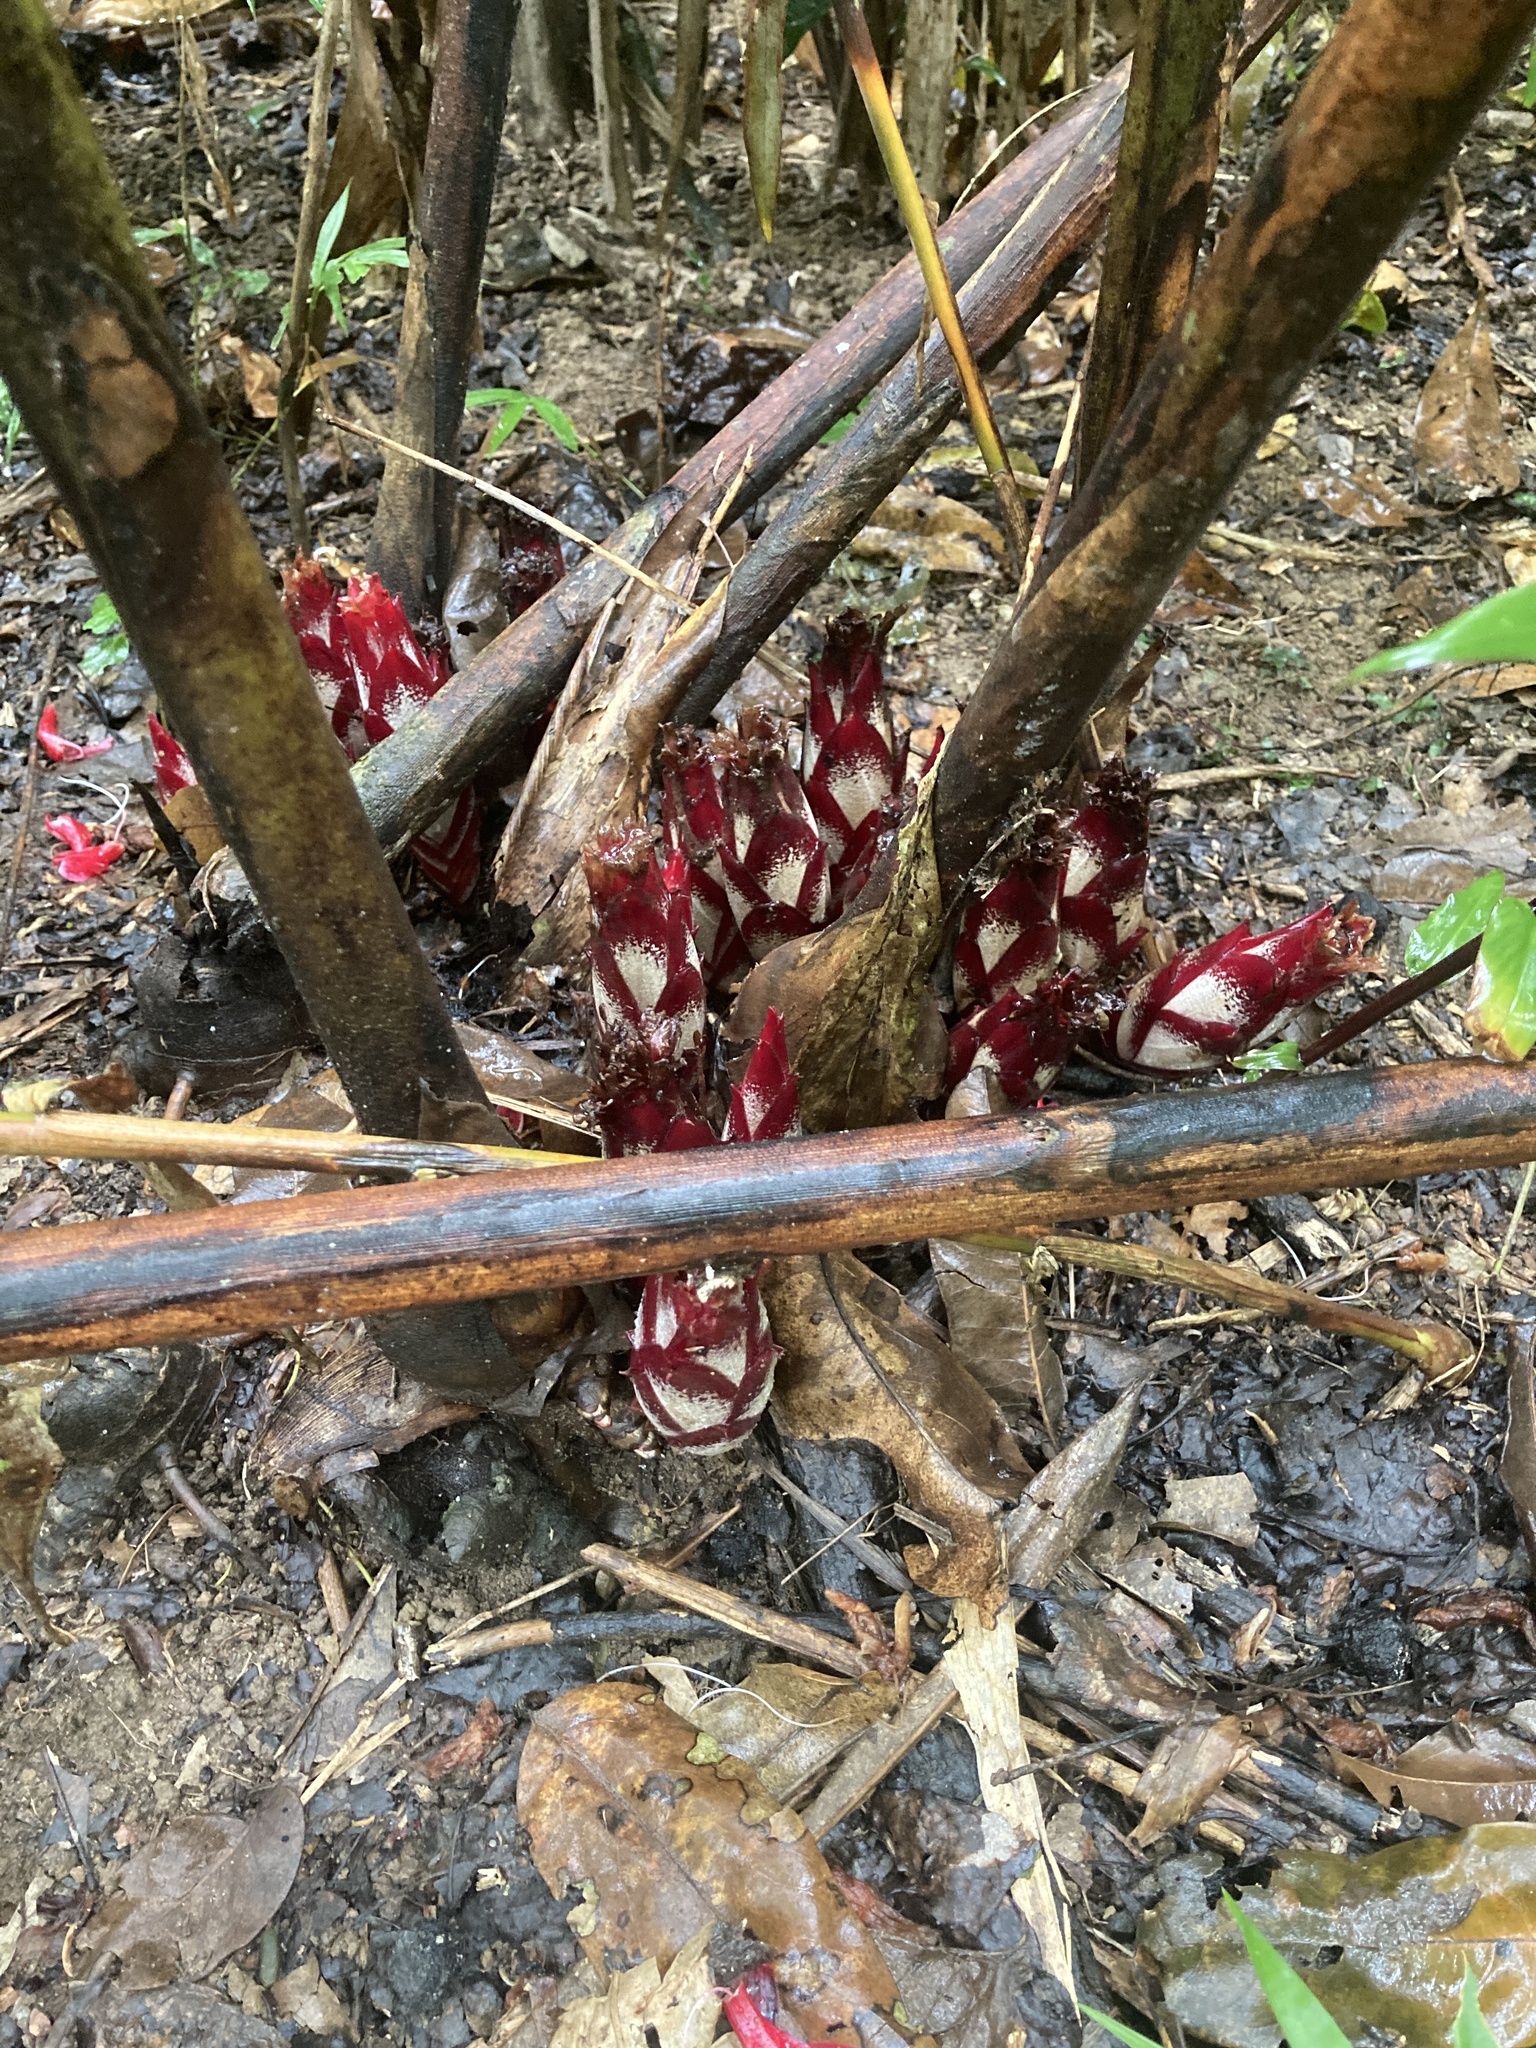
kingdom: Plantae
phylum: Tracheophyta
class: Liliopsida
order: Zingiberales
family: Zingiberaceae
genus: Hornstedtia
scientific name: Hornstedtia scottiana
